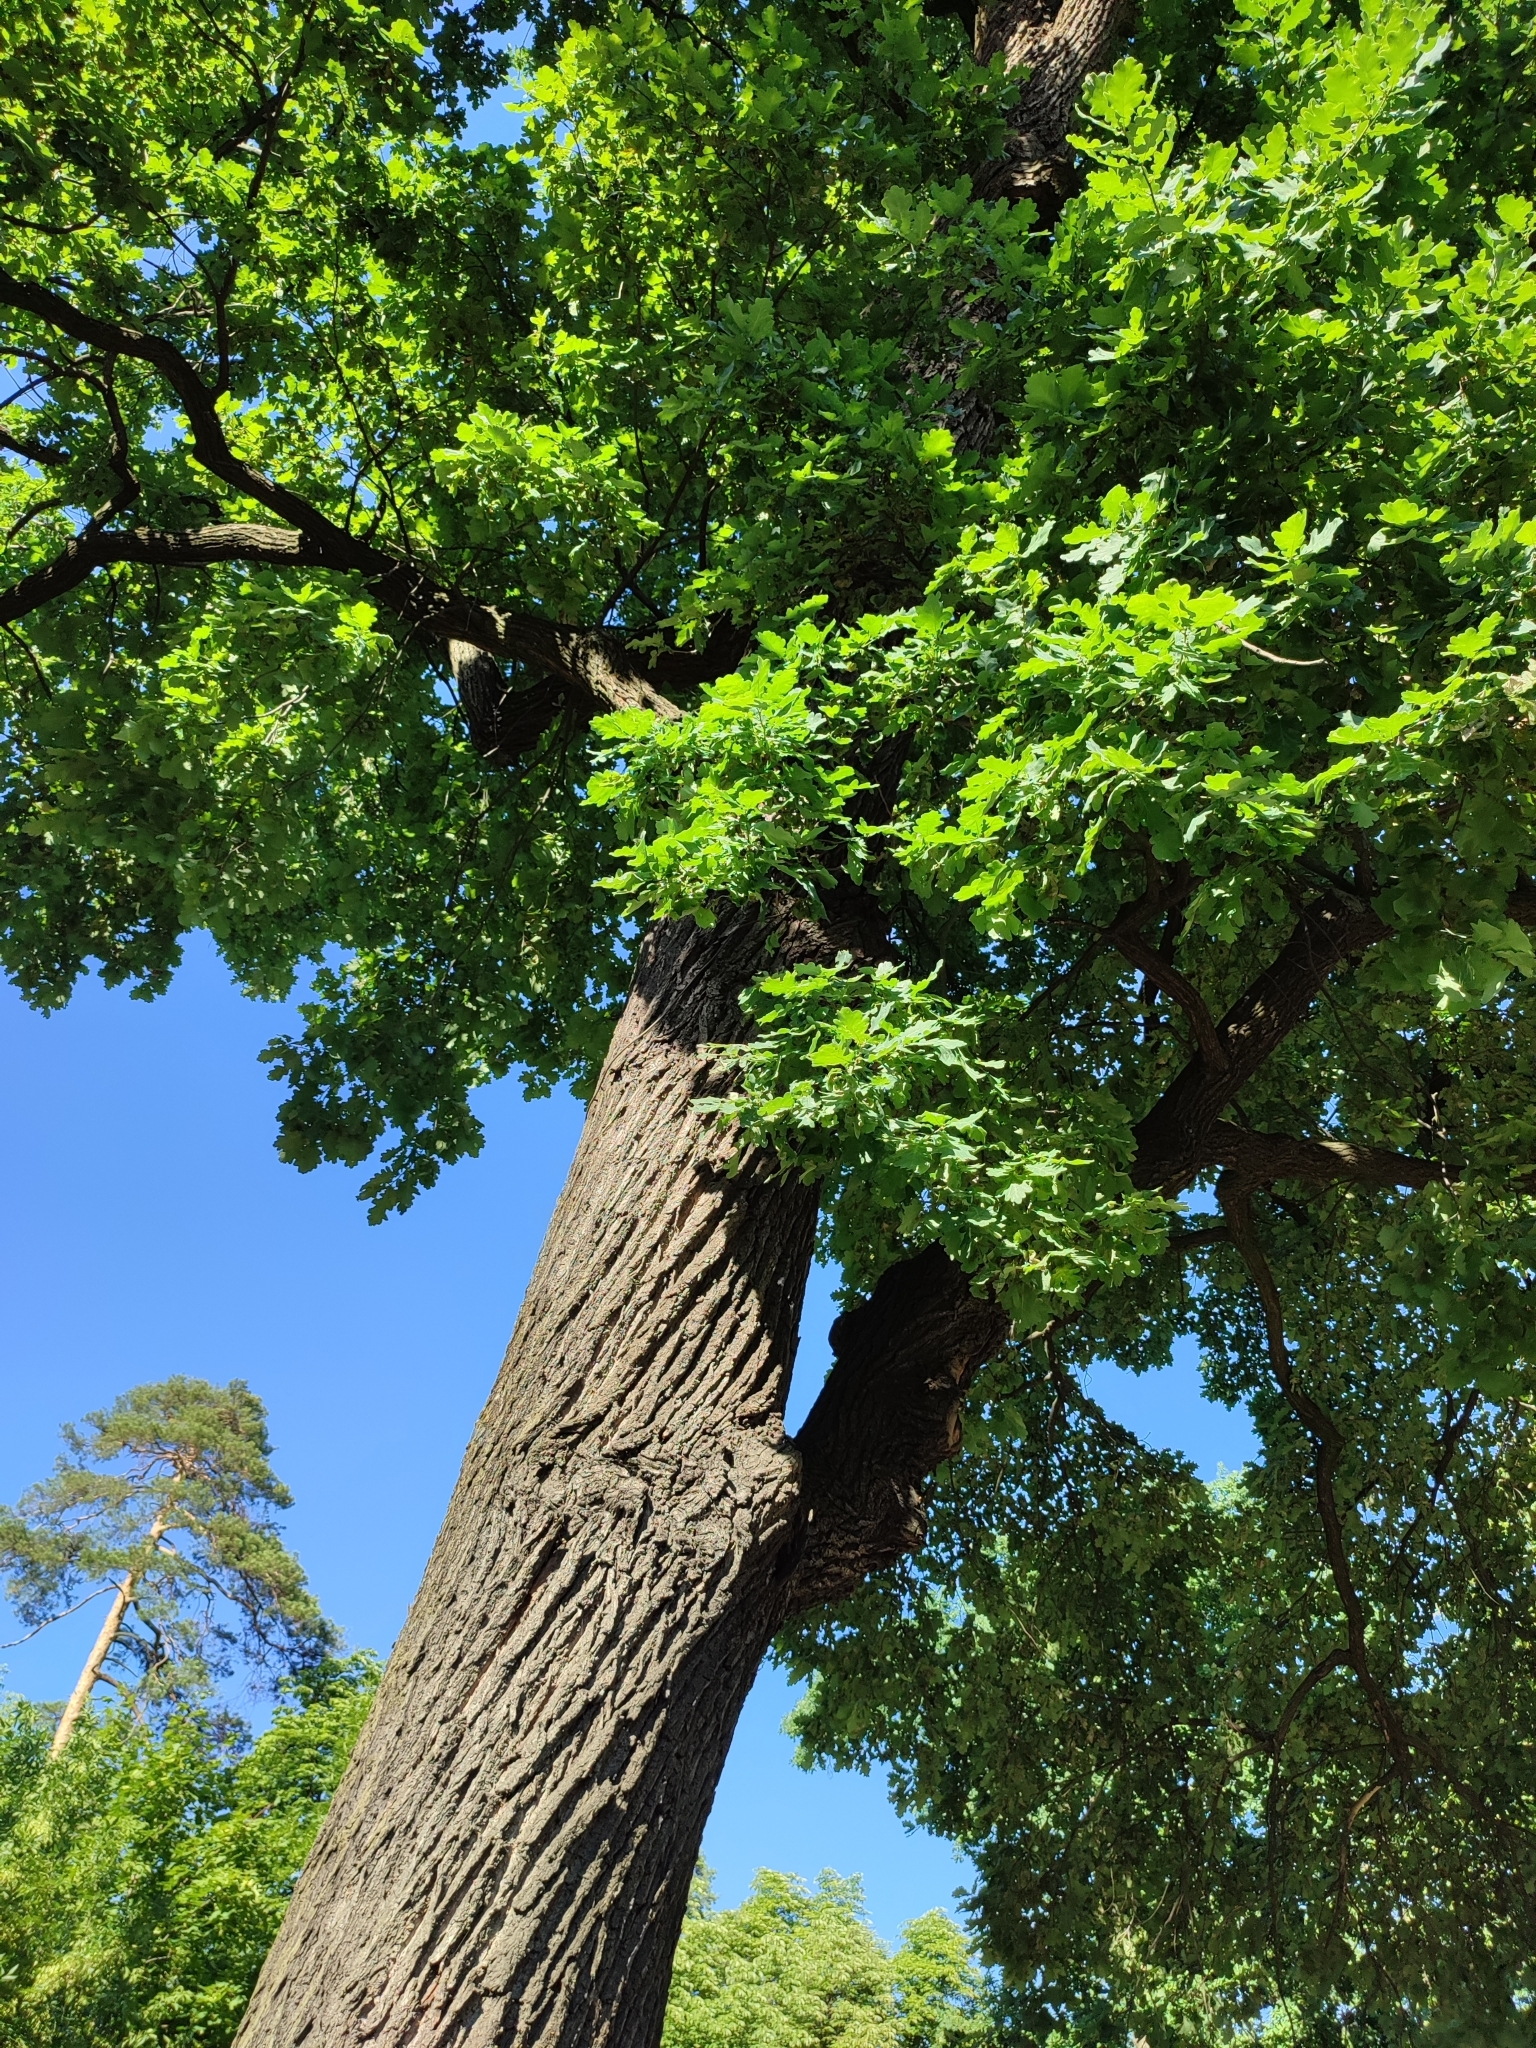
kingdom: Plantae
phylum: Tracheophyta
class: Magnoliopsida
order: Fagales
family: Fagaceae
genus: Quercus
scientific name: Quercus robur
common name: Pedunculate oak
